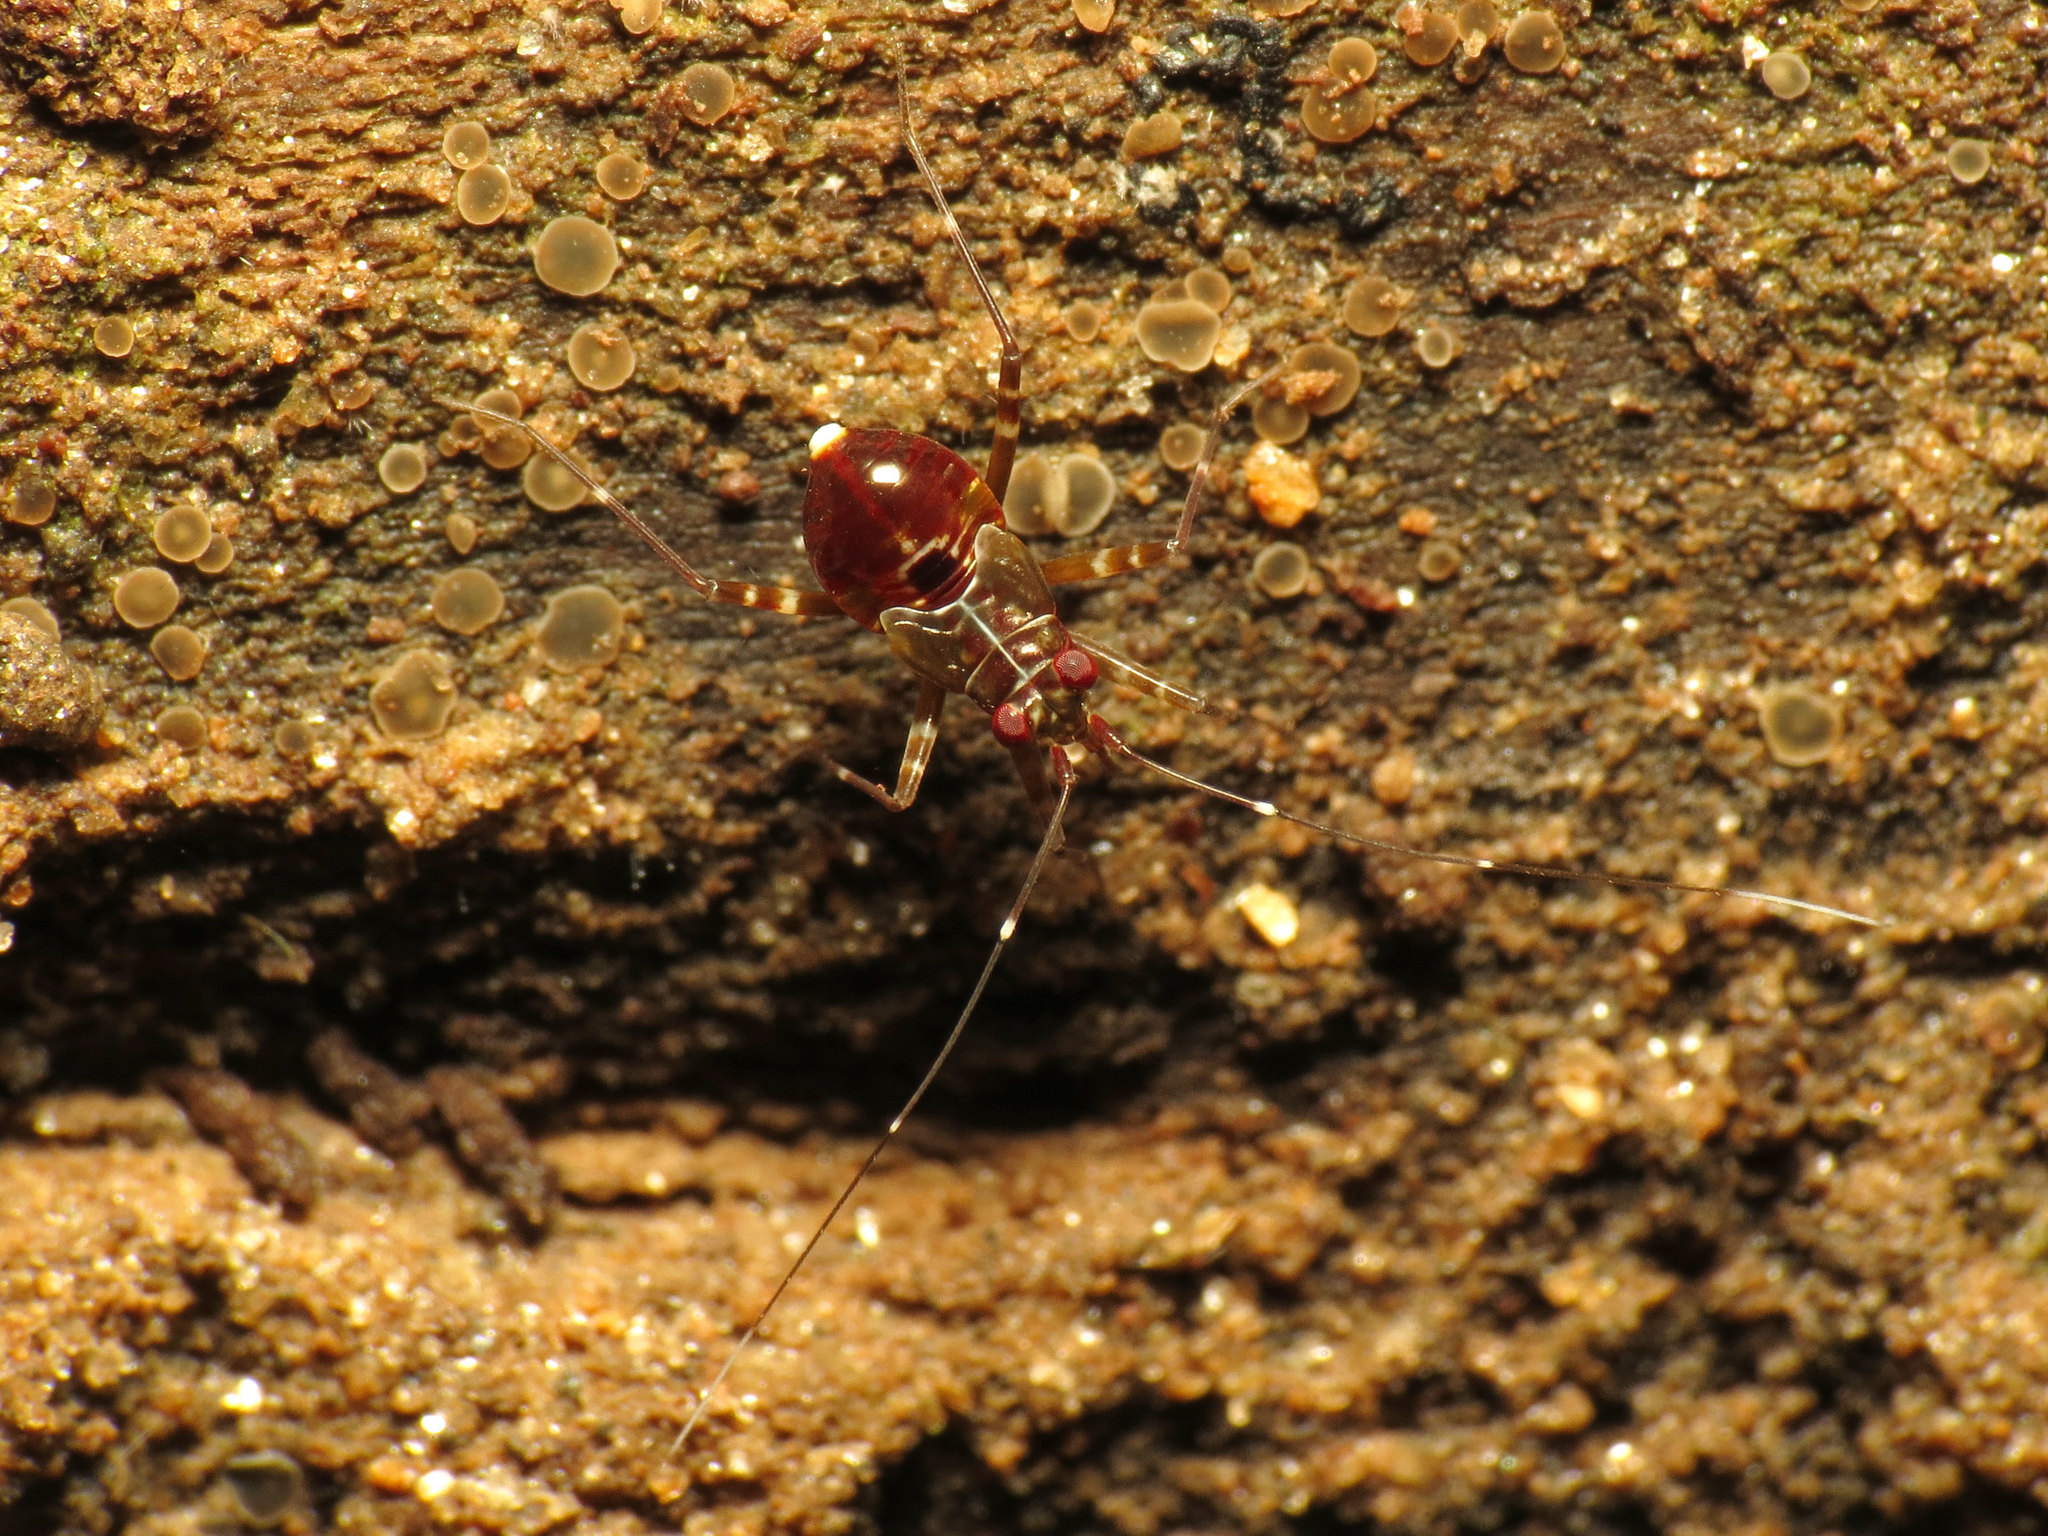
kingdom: Animalia
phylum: Arthropoda
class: Insecta
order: Hemiptera
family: Miridae
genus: Cylapus
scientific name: Cylapus tenuicornis
